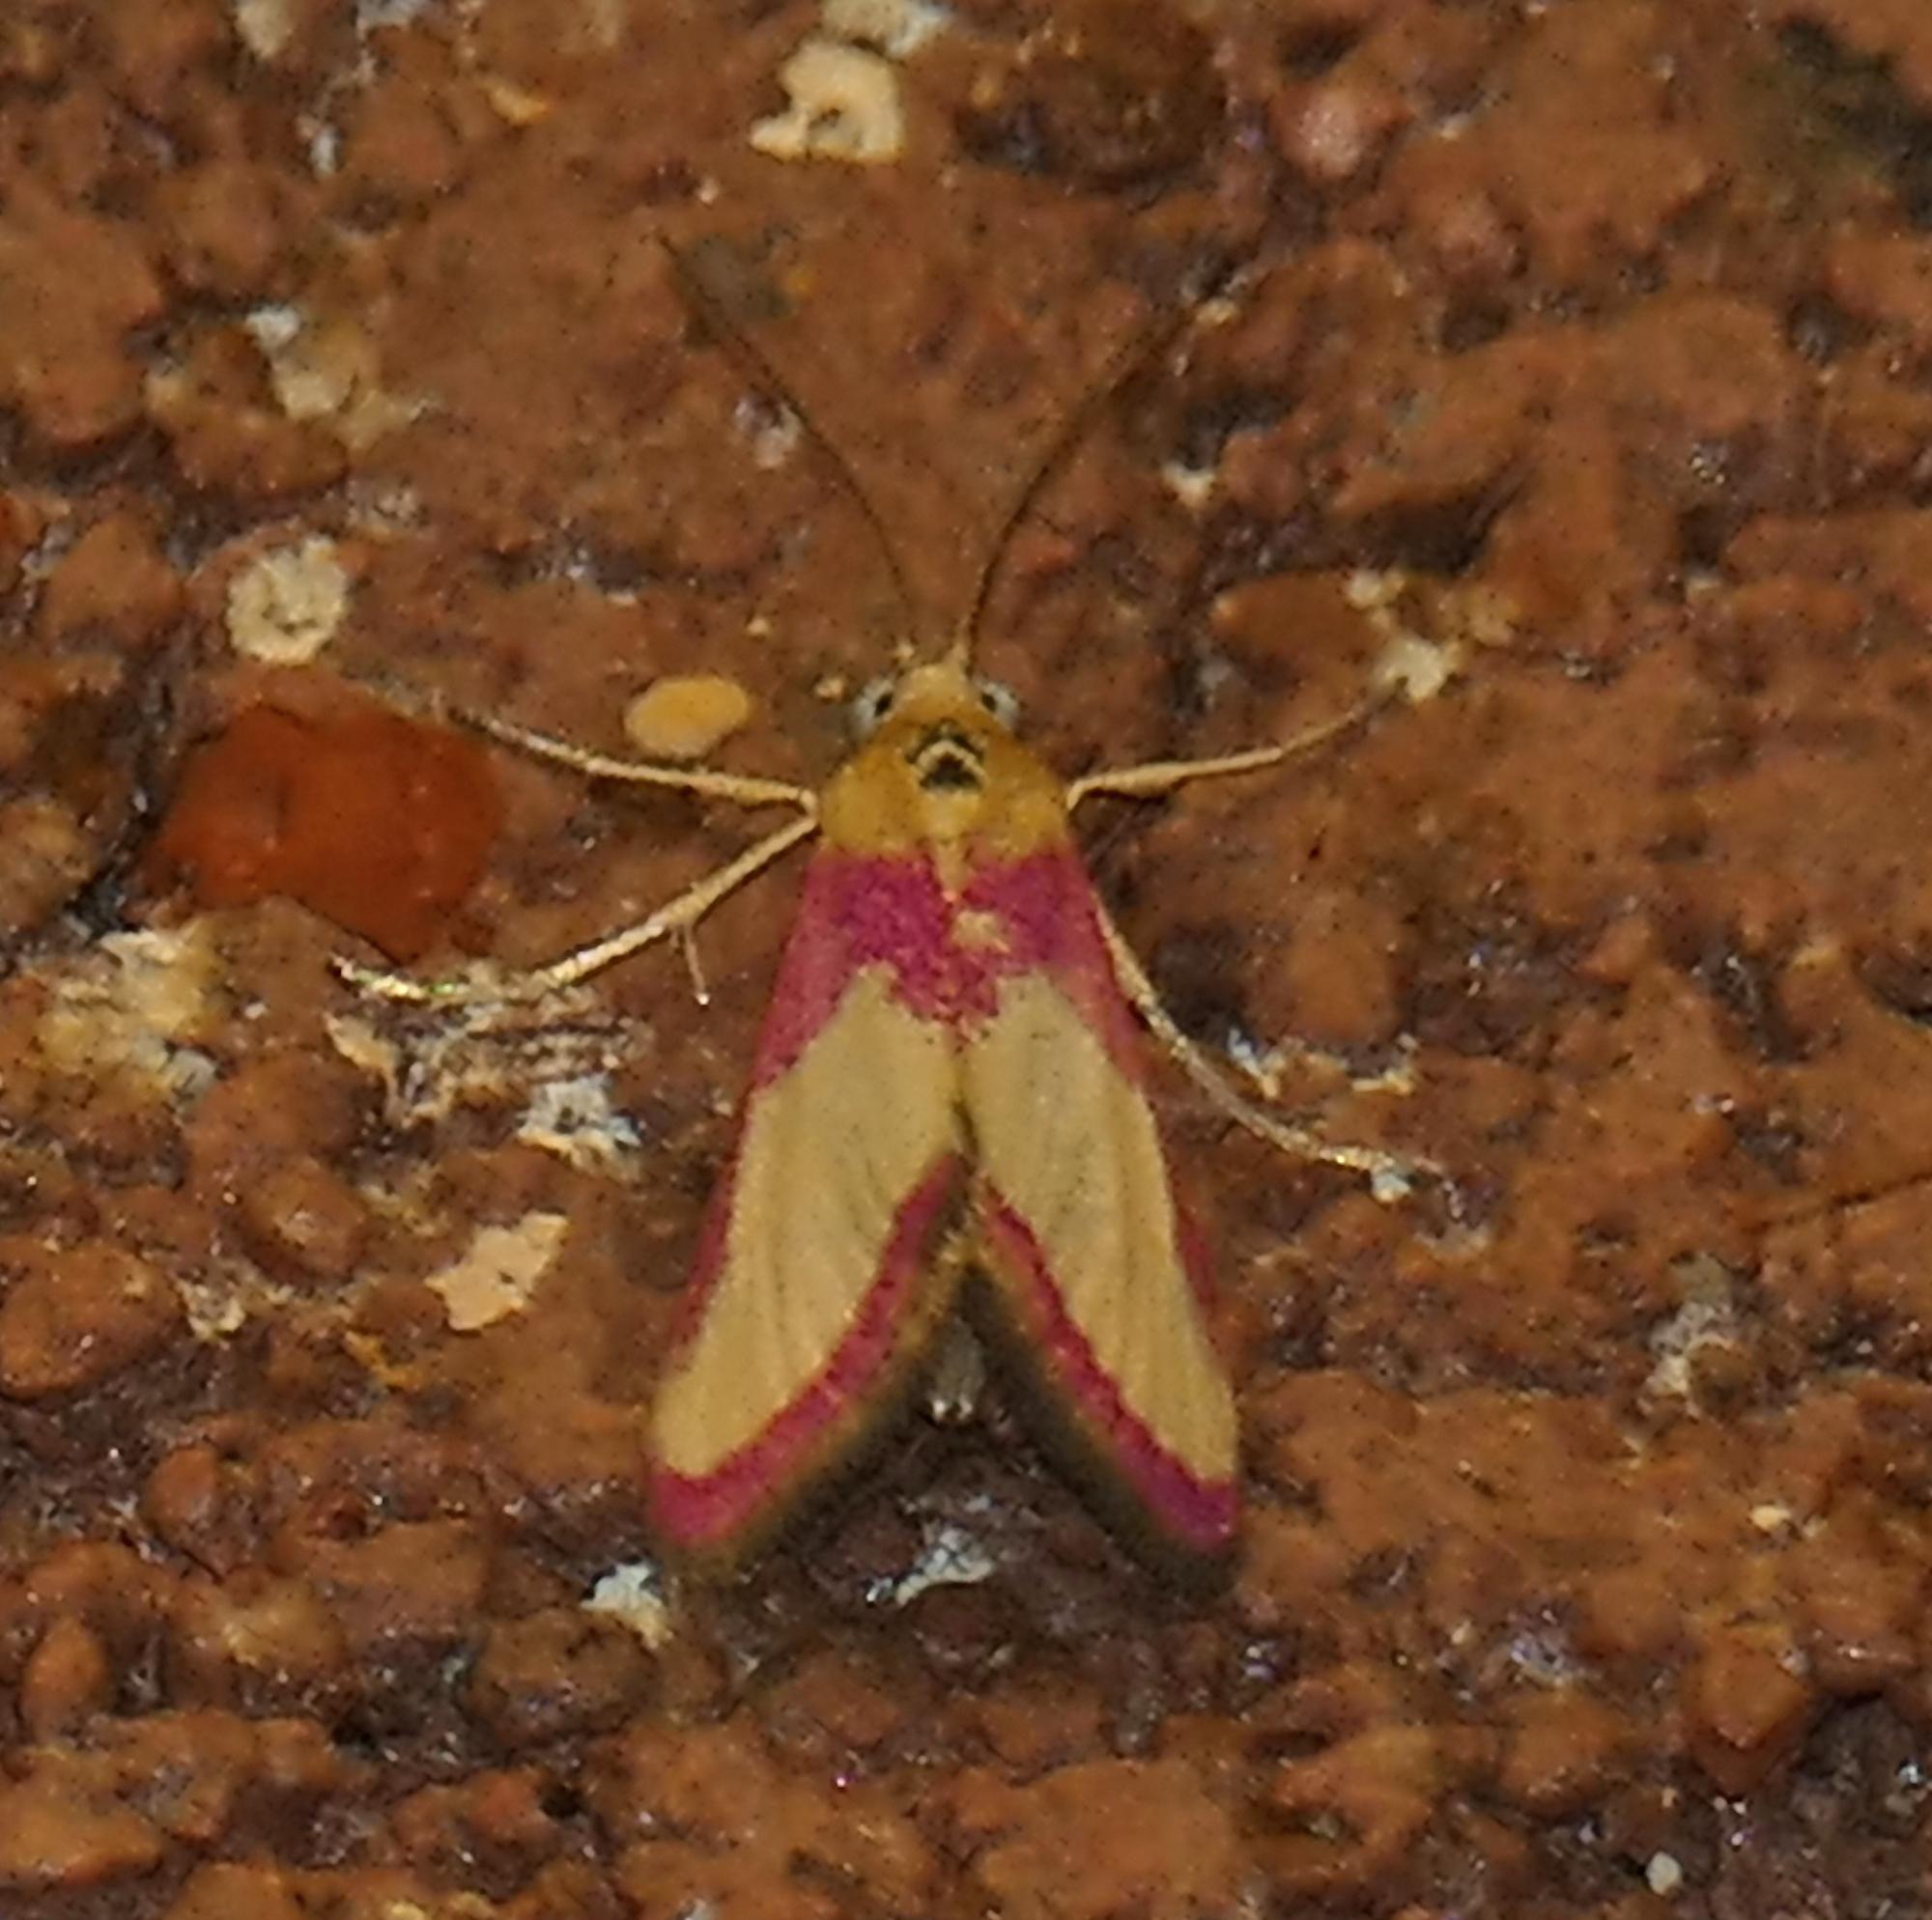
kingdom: Animalia
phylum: Arthropoda
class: Insecta
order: Lepidoptera
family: Crambidae
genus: Mojavia
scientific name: Mojavia achemonalis
